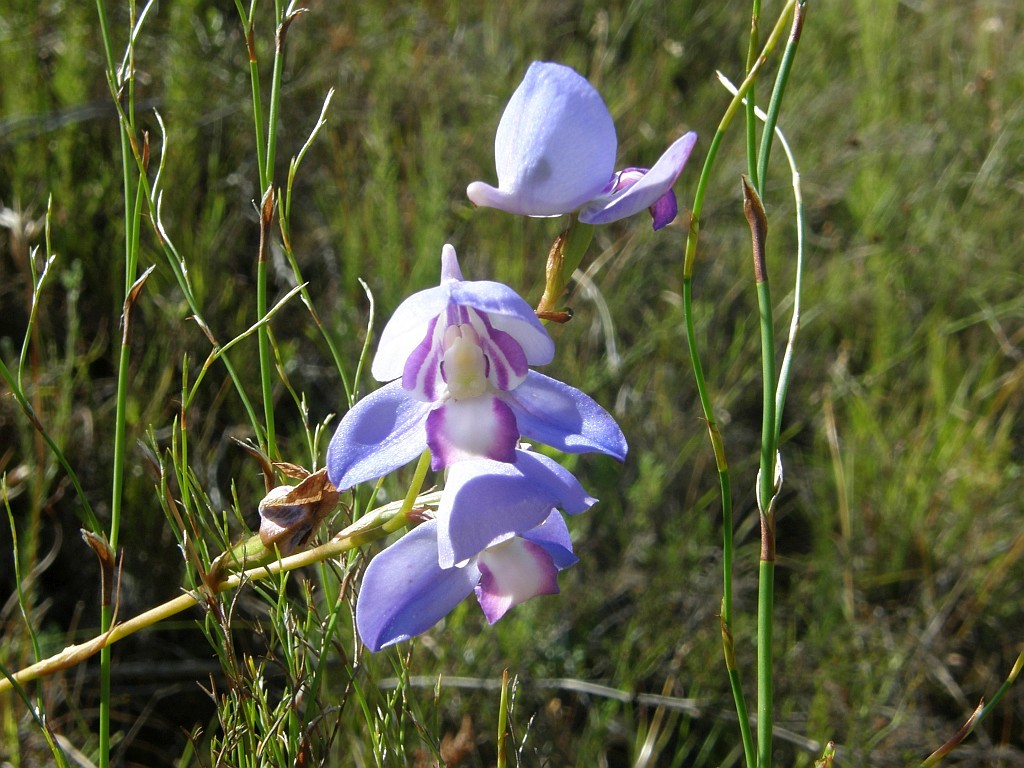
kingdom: Plantae
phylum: Tracheophyta
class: Liliopsida
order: Asparagales
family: Orchidaceae
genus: Disa
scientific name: Disa graminifolia
